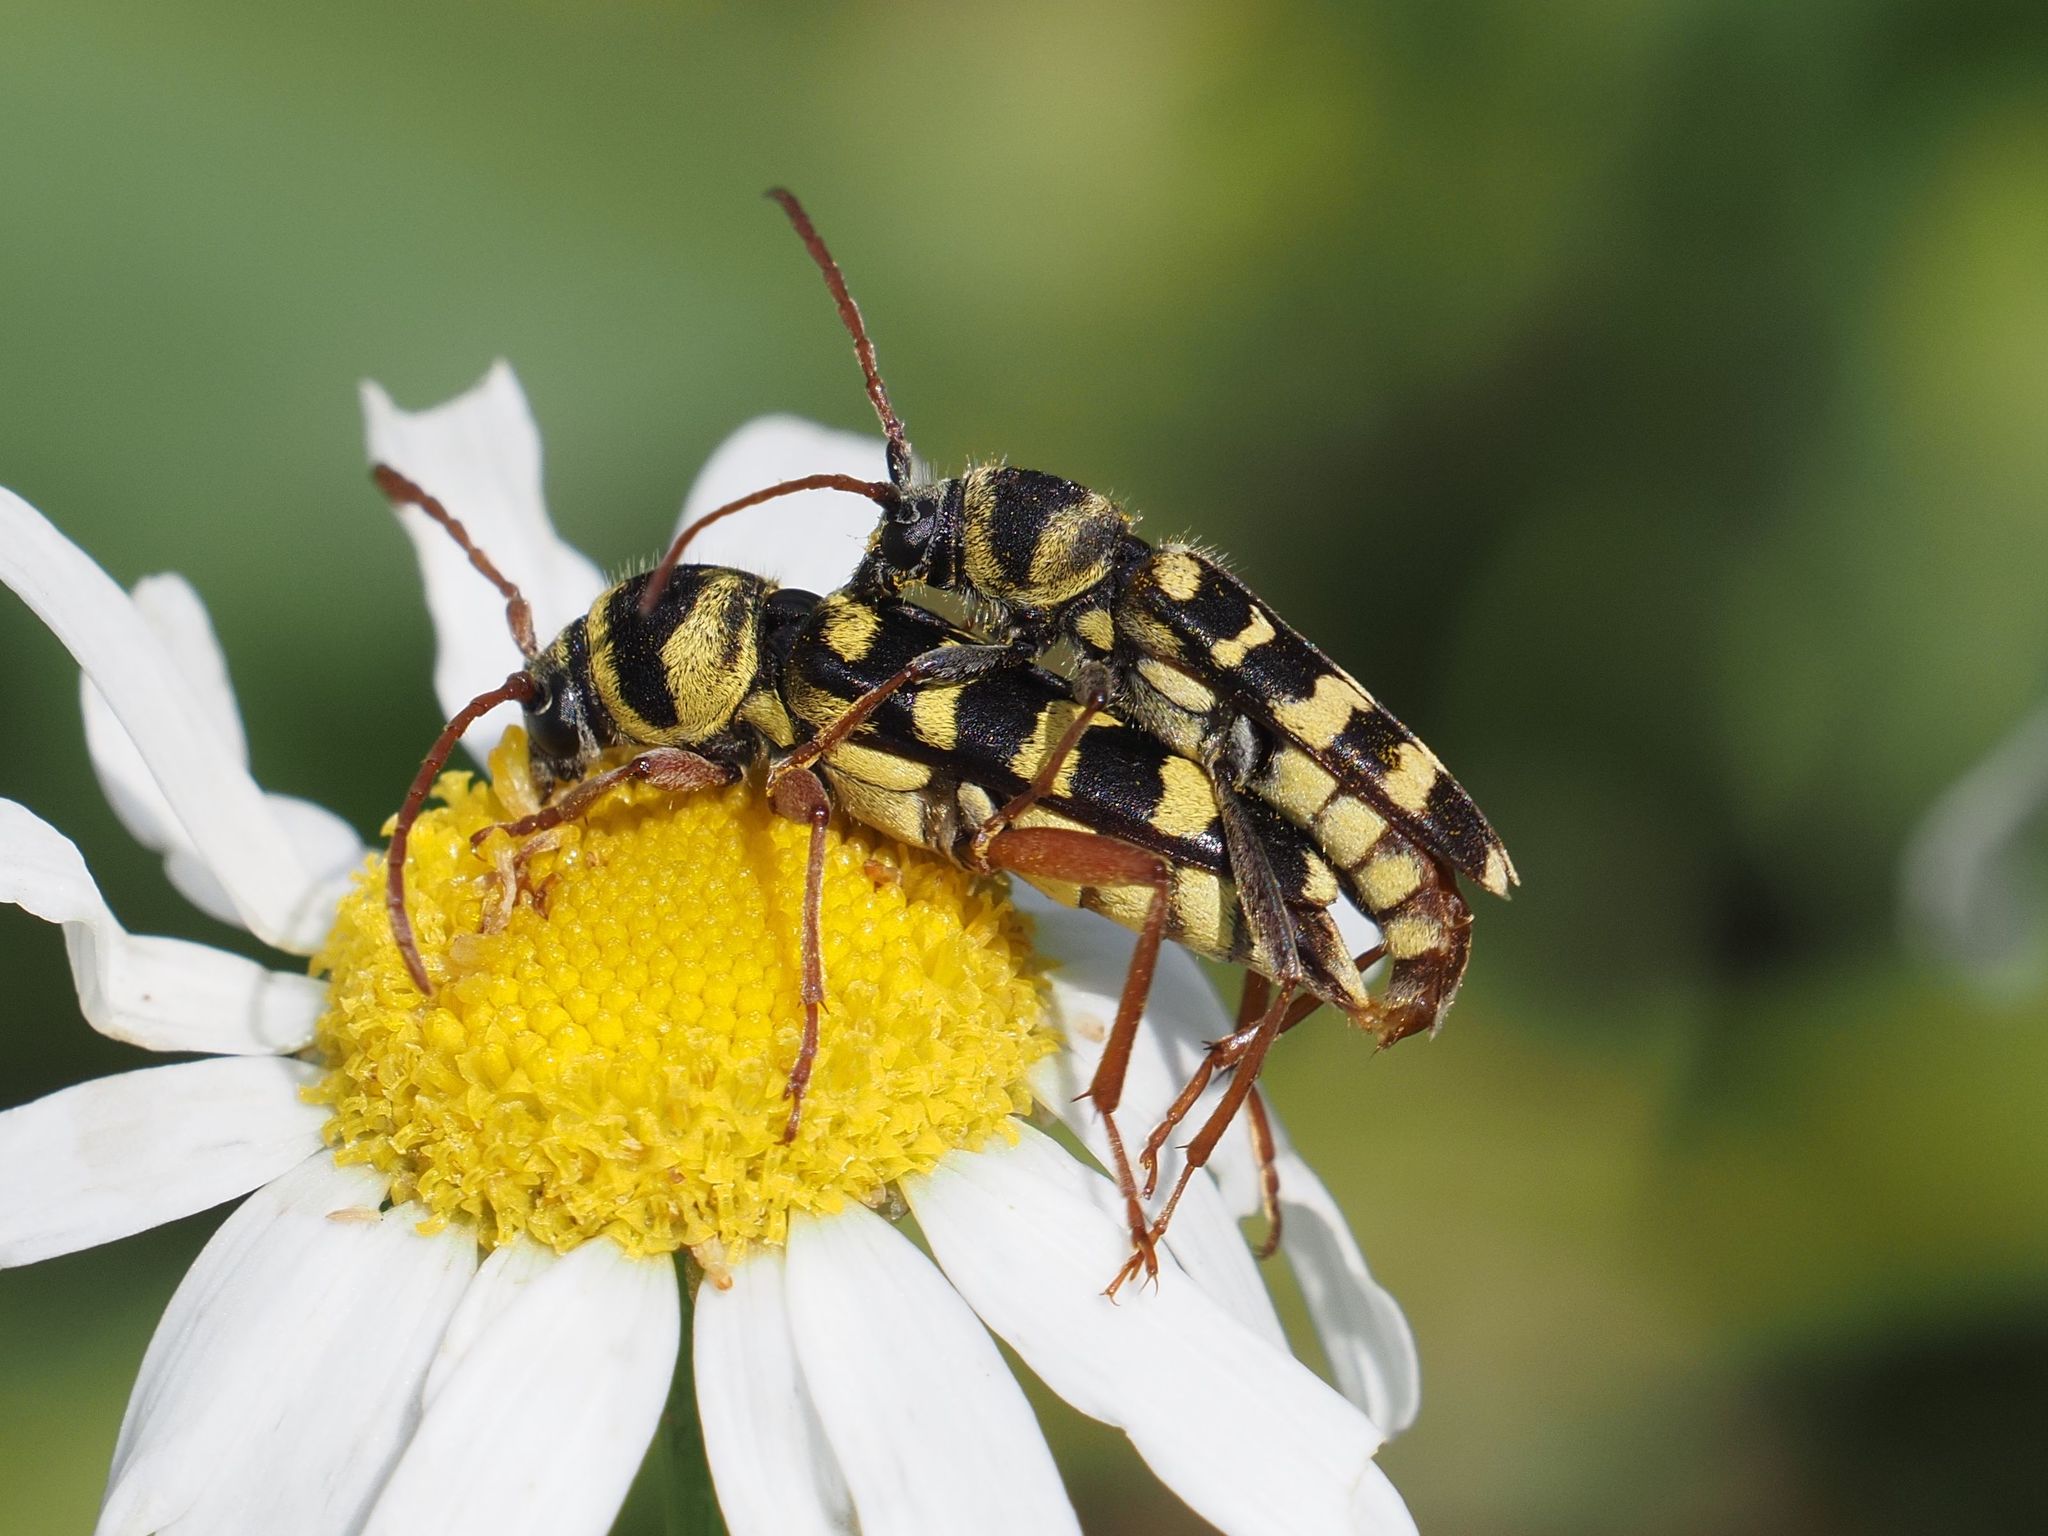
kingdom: Animalia
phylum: Arthropoda
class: Insecta
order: Coleoptera
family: Cerambycidae
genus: Plagionotus
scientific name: Plagionotus floralis
